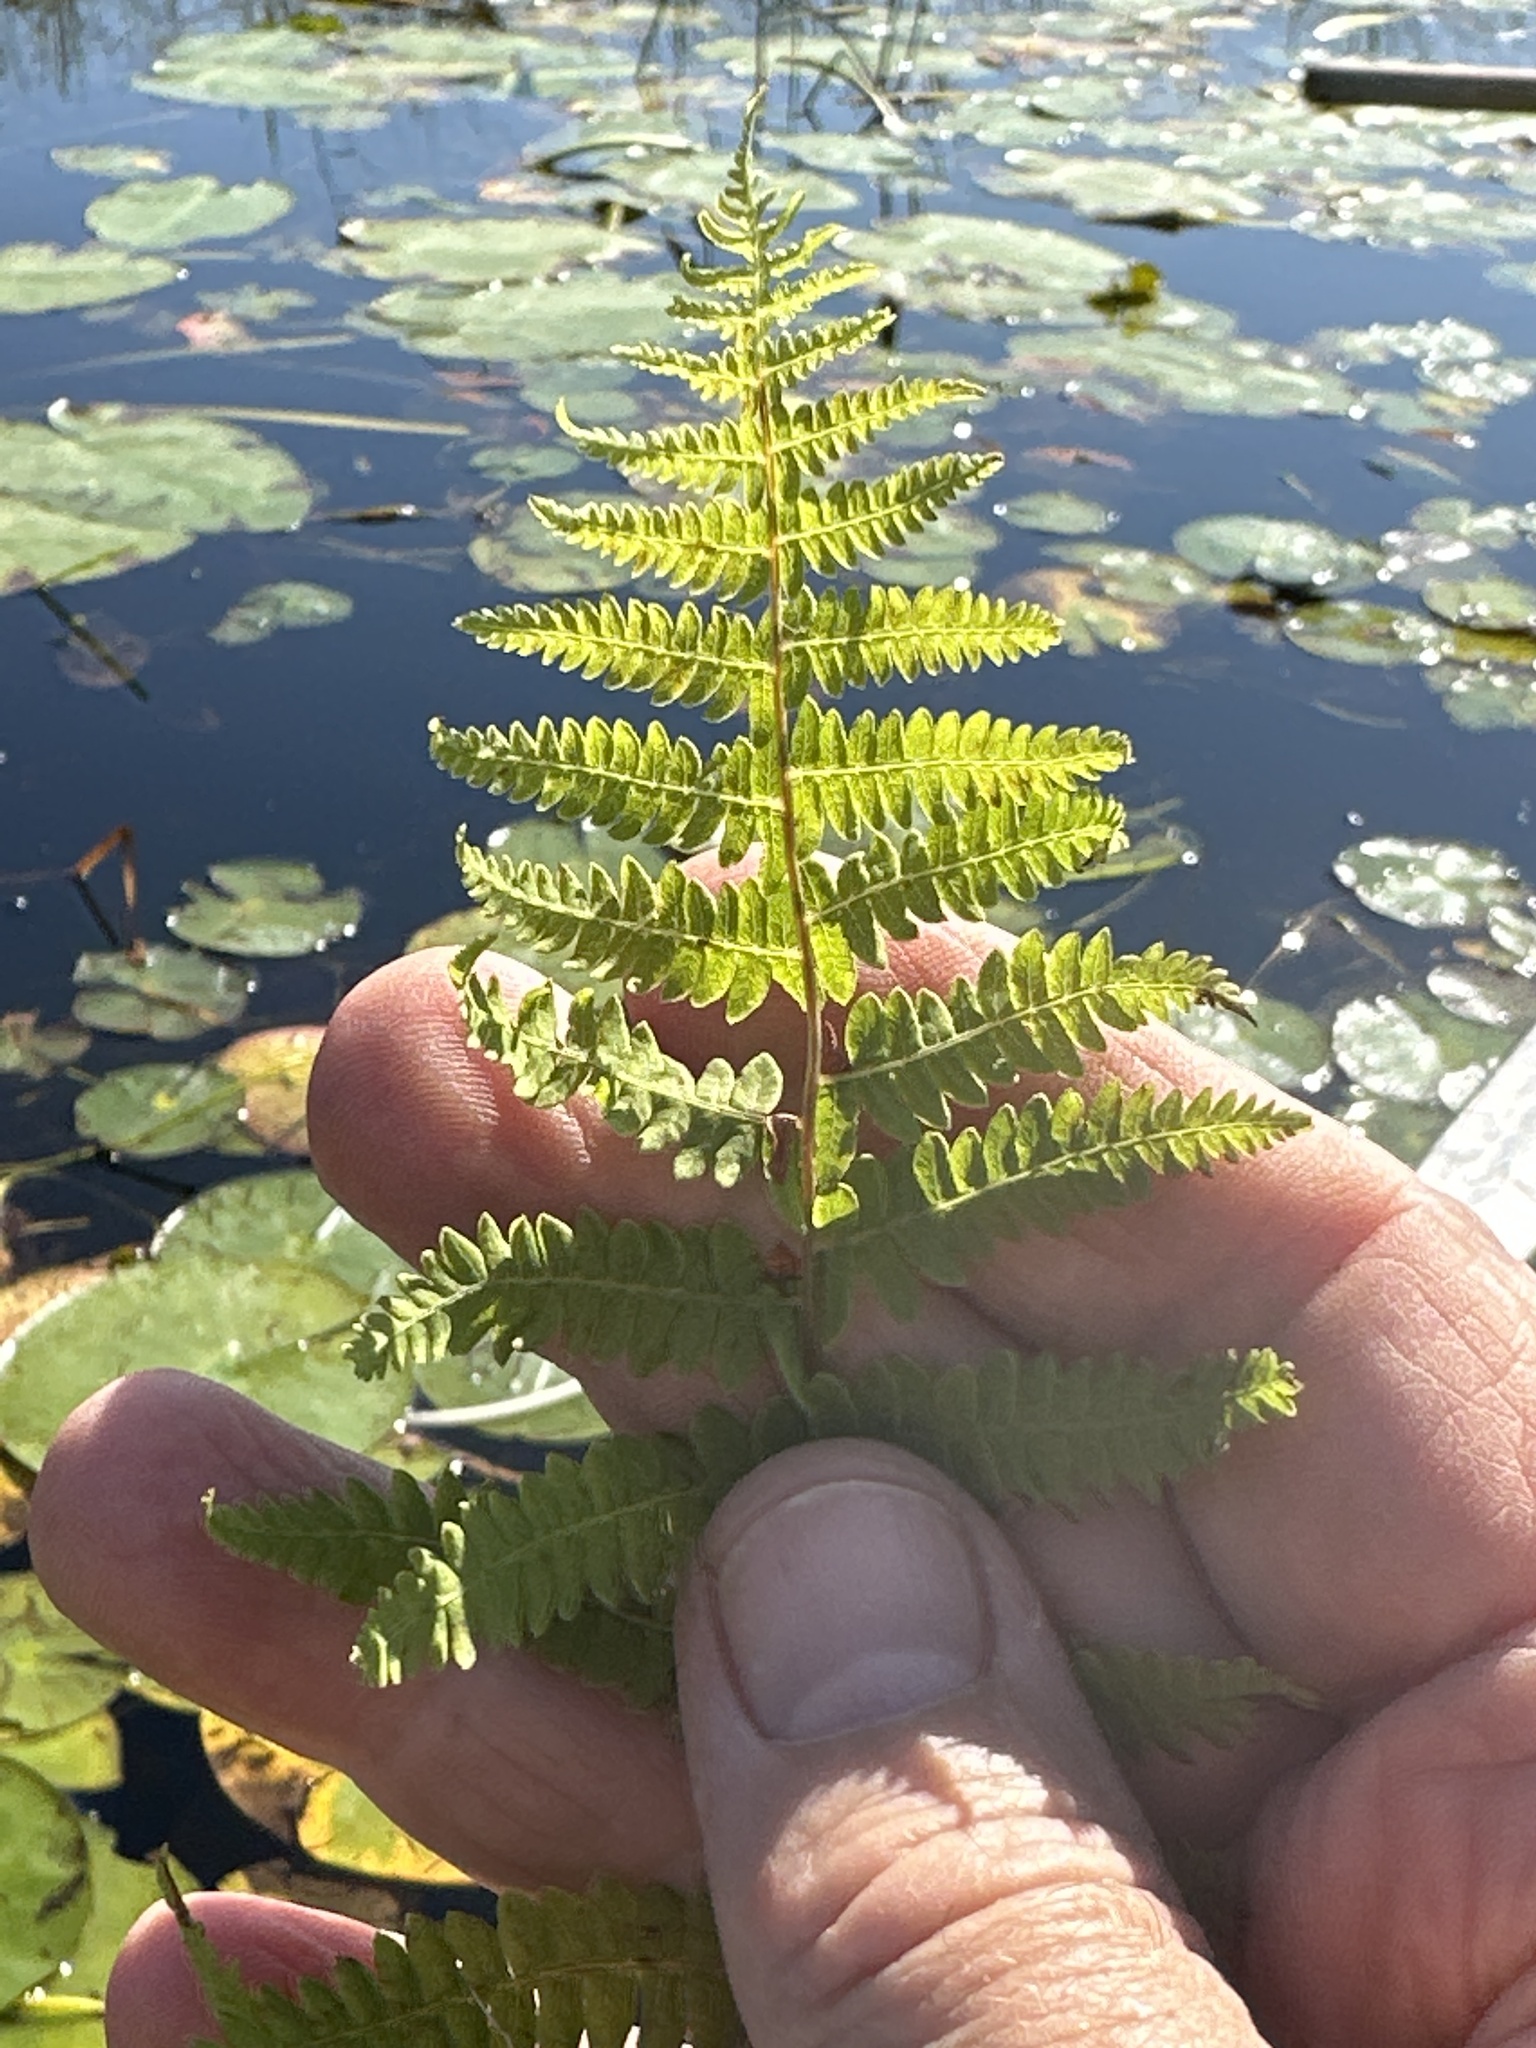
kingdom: Plantae
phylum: Tracheophyta
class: Polypodiopsida
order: Polypodiales
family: Thelypteridaceae
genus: Thelypteris
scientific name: Thelypteris palustris
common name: Marsh fern
